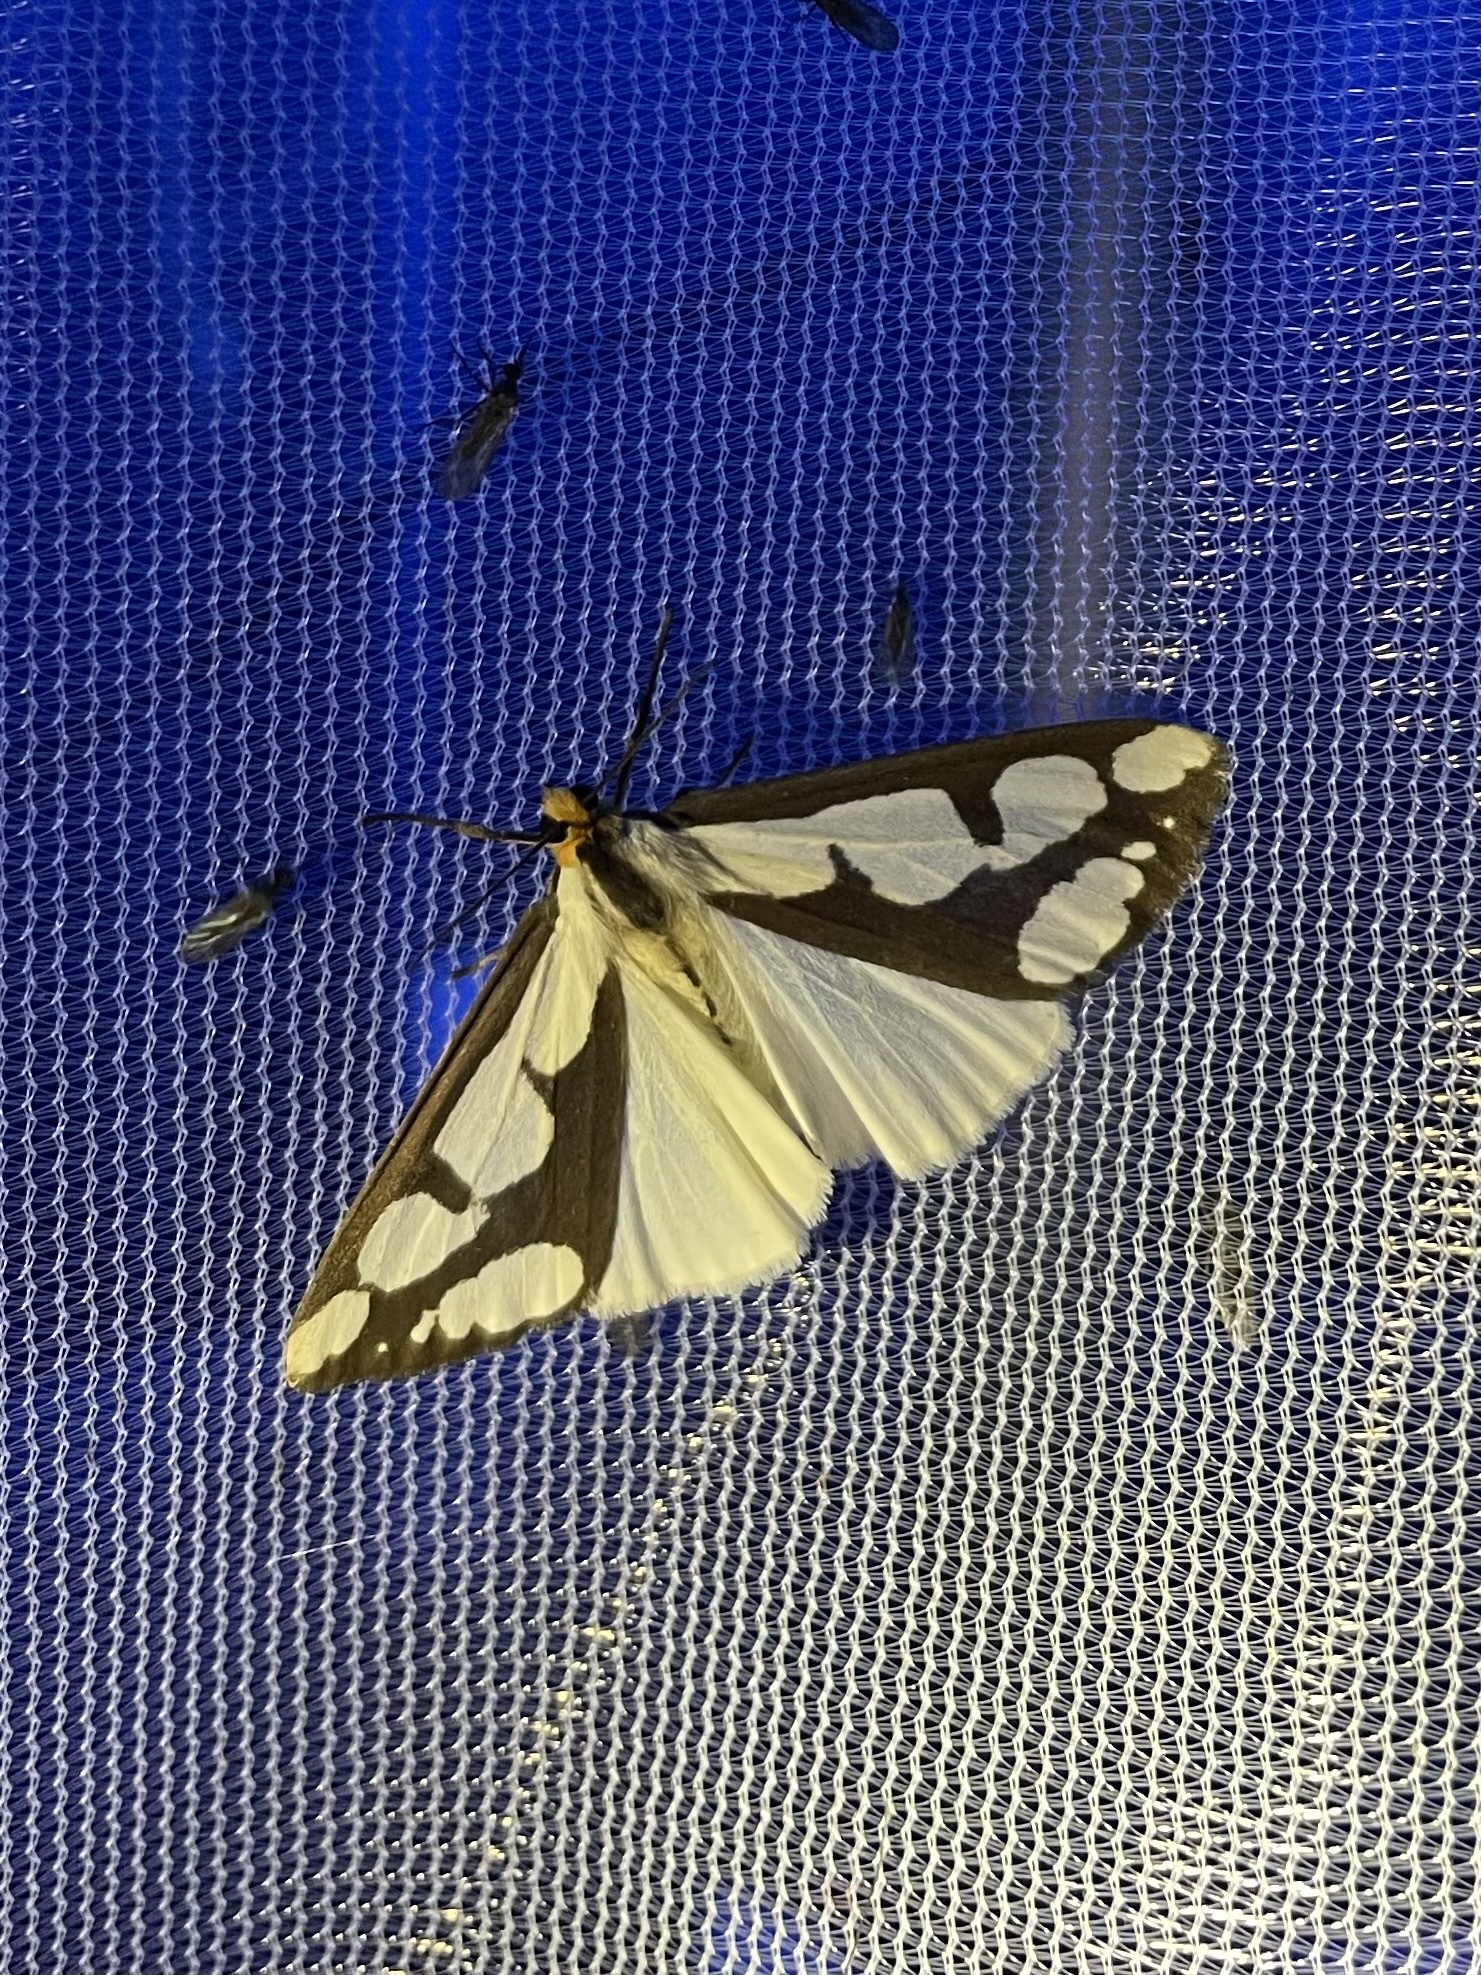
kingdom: Animalia
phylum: Arthropoda
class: Insecta
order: Lepidoptera
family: Erebidae
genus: Haploa
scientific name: Haploa lecontei
